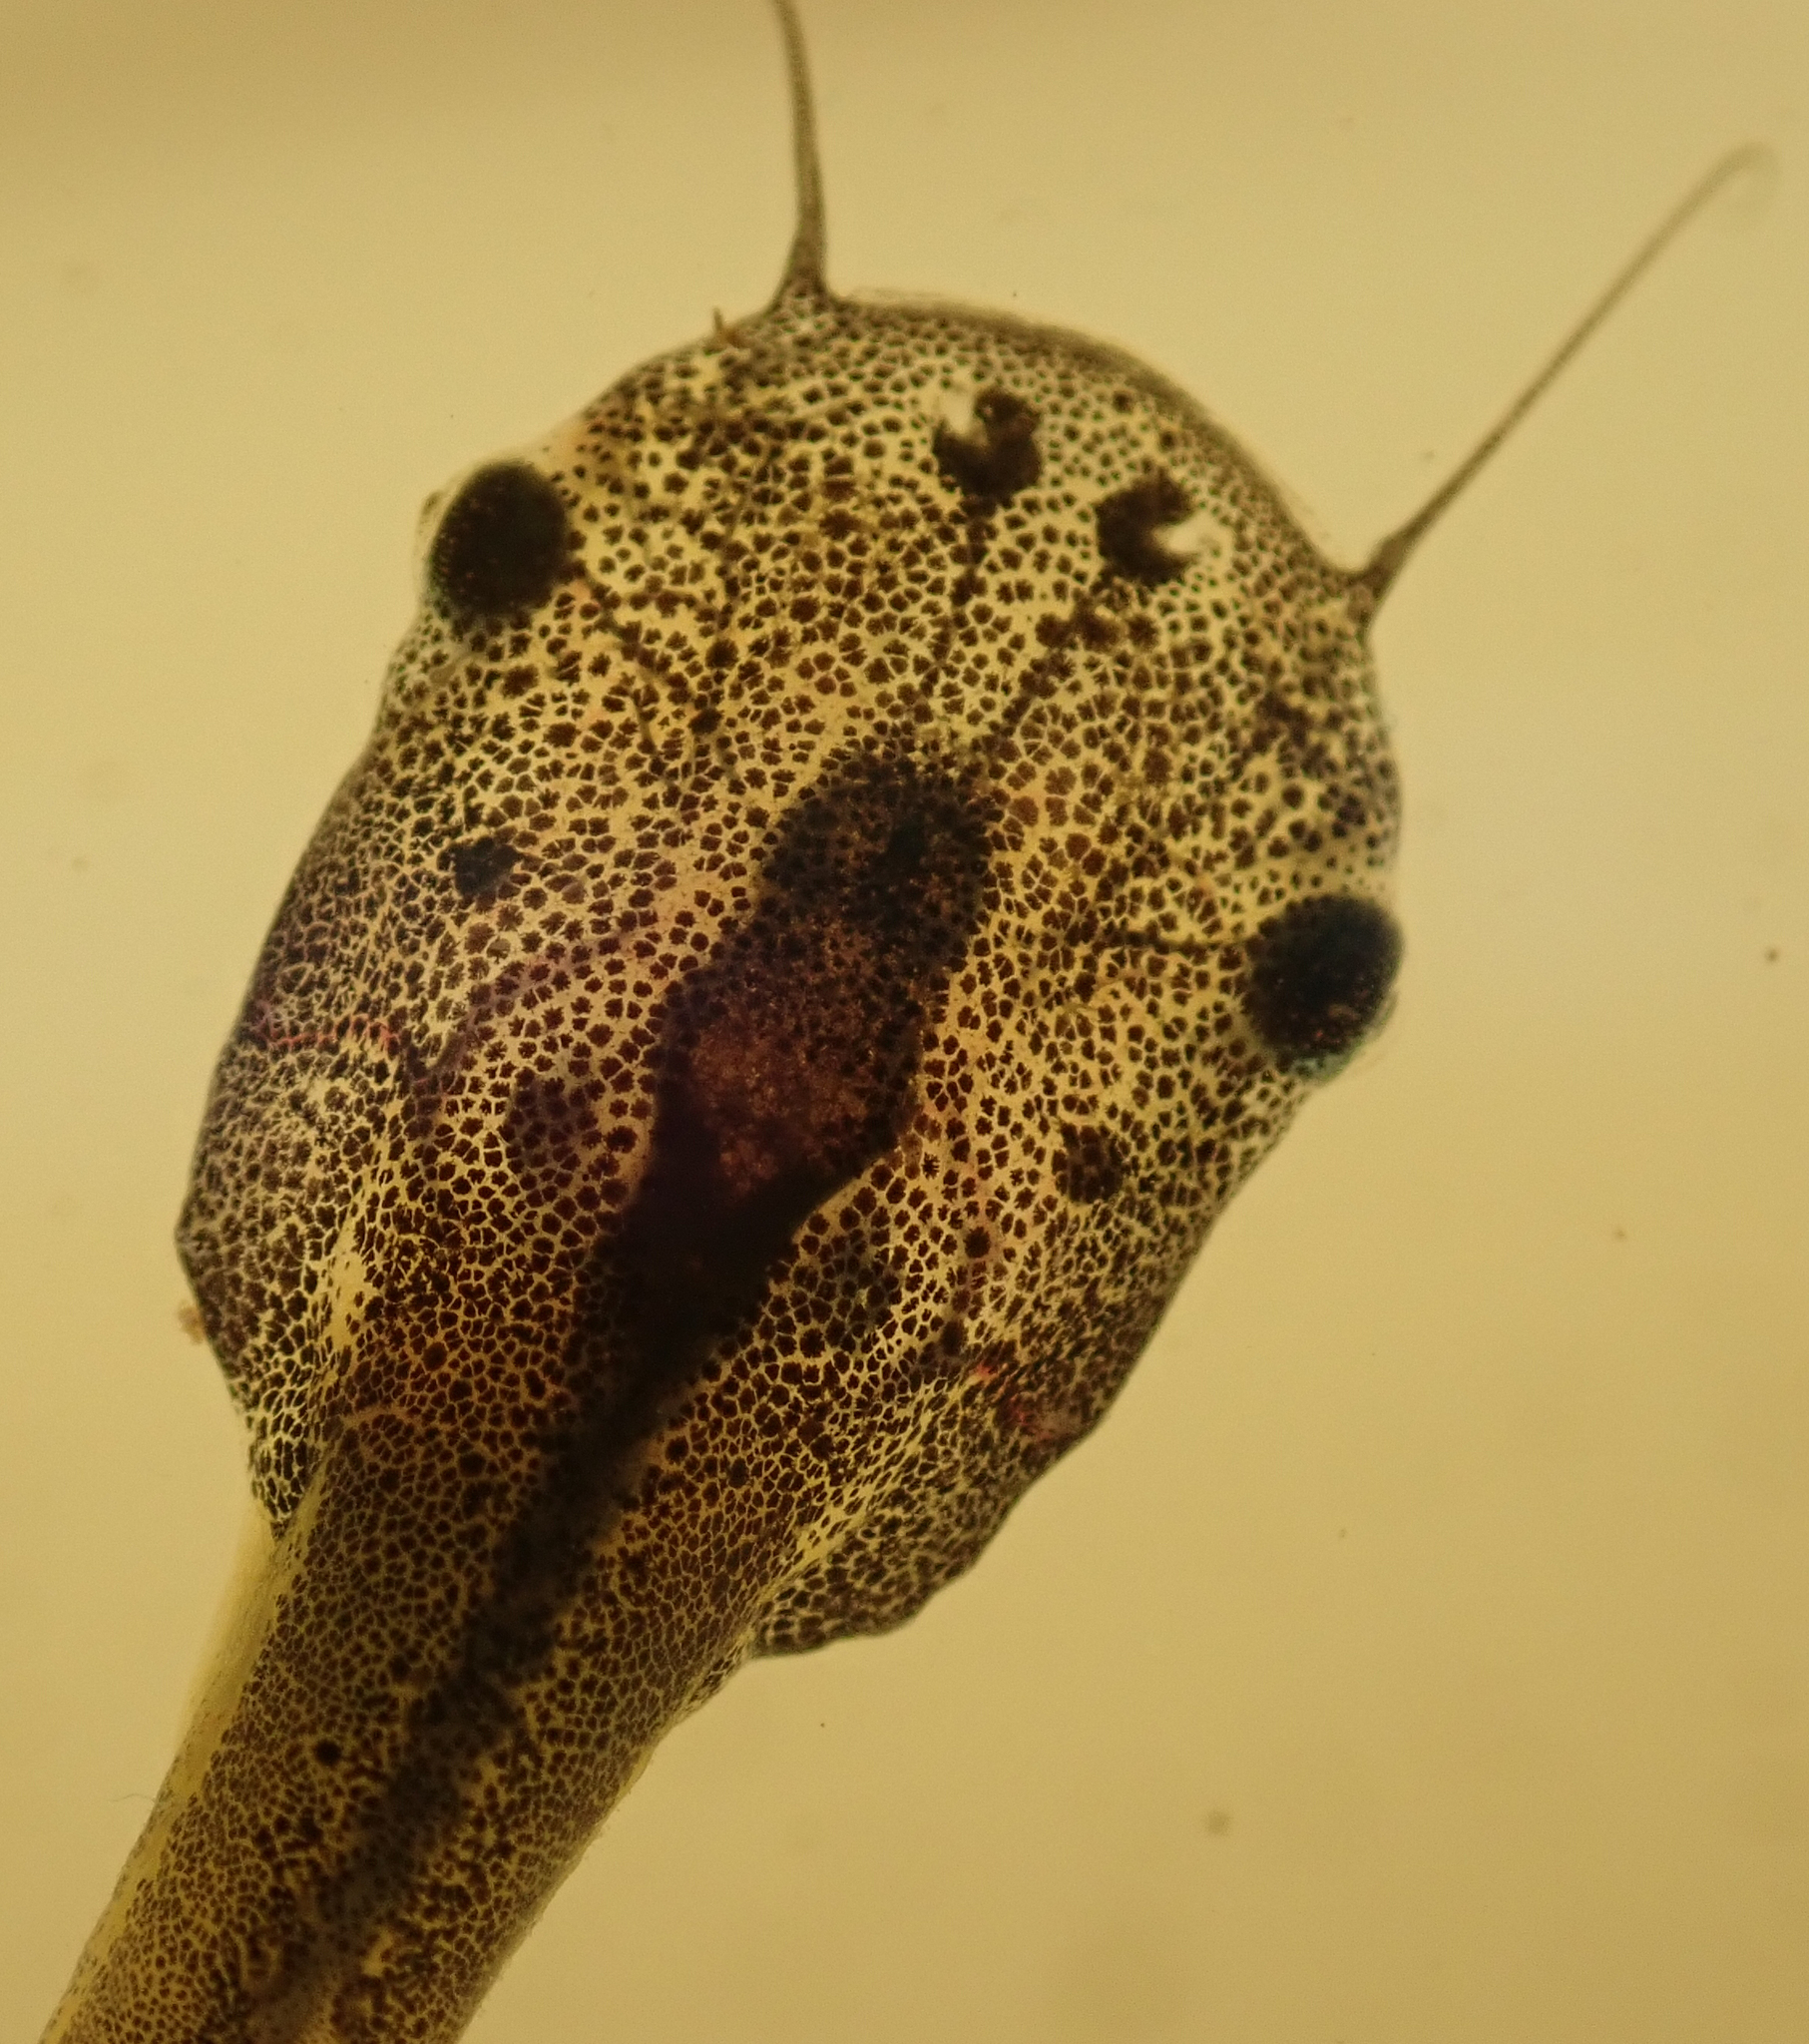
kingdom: Animalia
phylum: Chordata
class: Amphibia
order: Anura
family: Pipidae
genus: Xenopus
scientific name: Xenopus laevis
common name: African clawed frog
